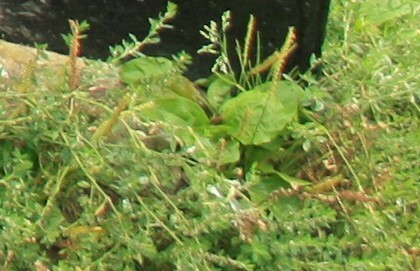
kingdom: Plantae
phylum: Tracheophyta
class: Magnoliopsida
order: Lamiales
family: Plantaginaceae
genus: Plantago
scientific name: Plantago major
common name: Common plantain
